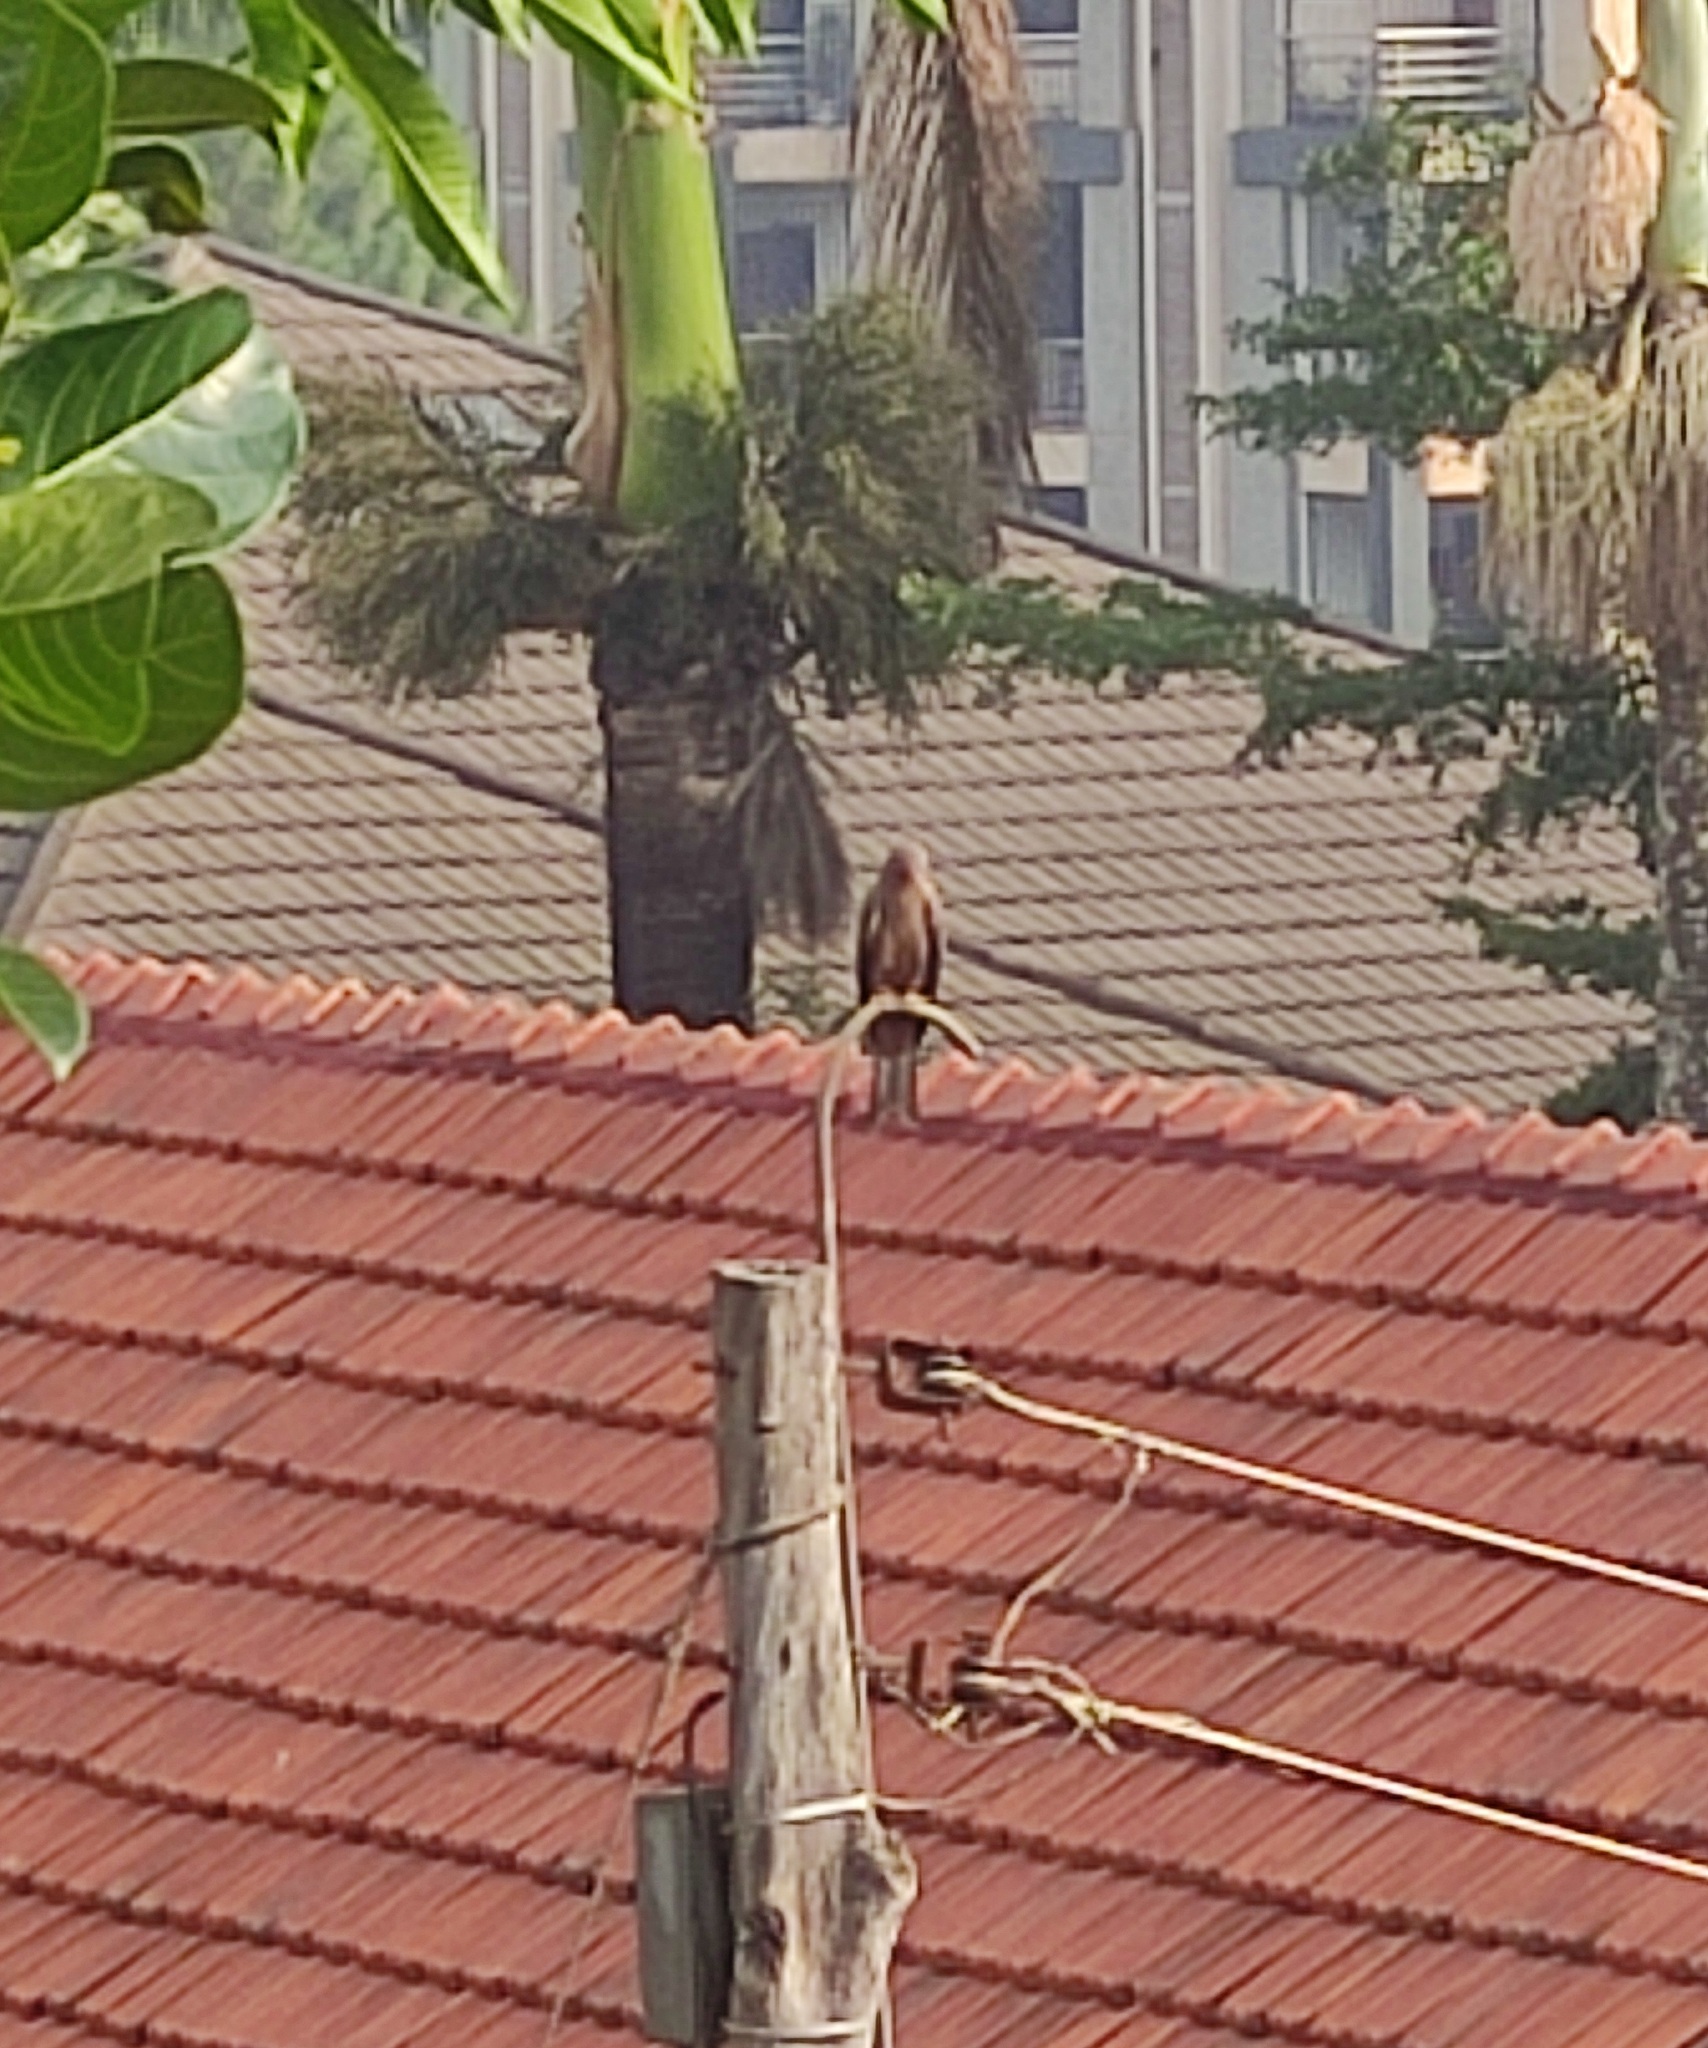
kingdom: Animalia
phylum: Chordata
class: Aves
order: Accipitriformes
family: Accipitridae
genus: Milvus
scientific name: Milvus migrans
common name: Black kite
